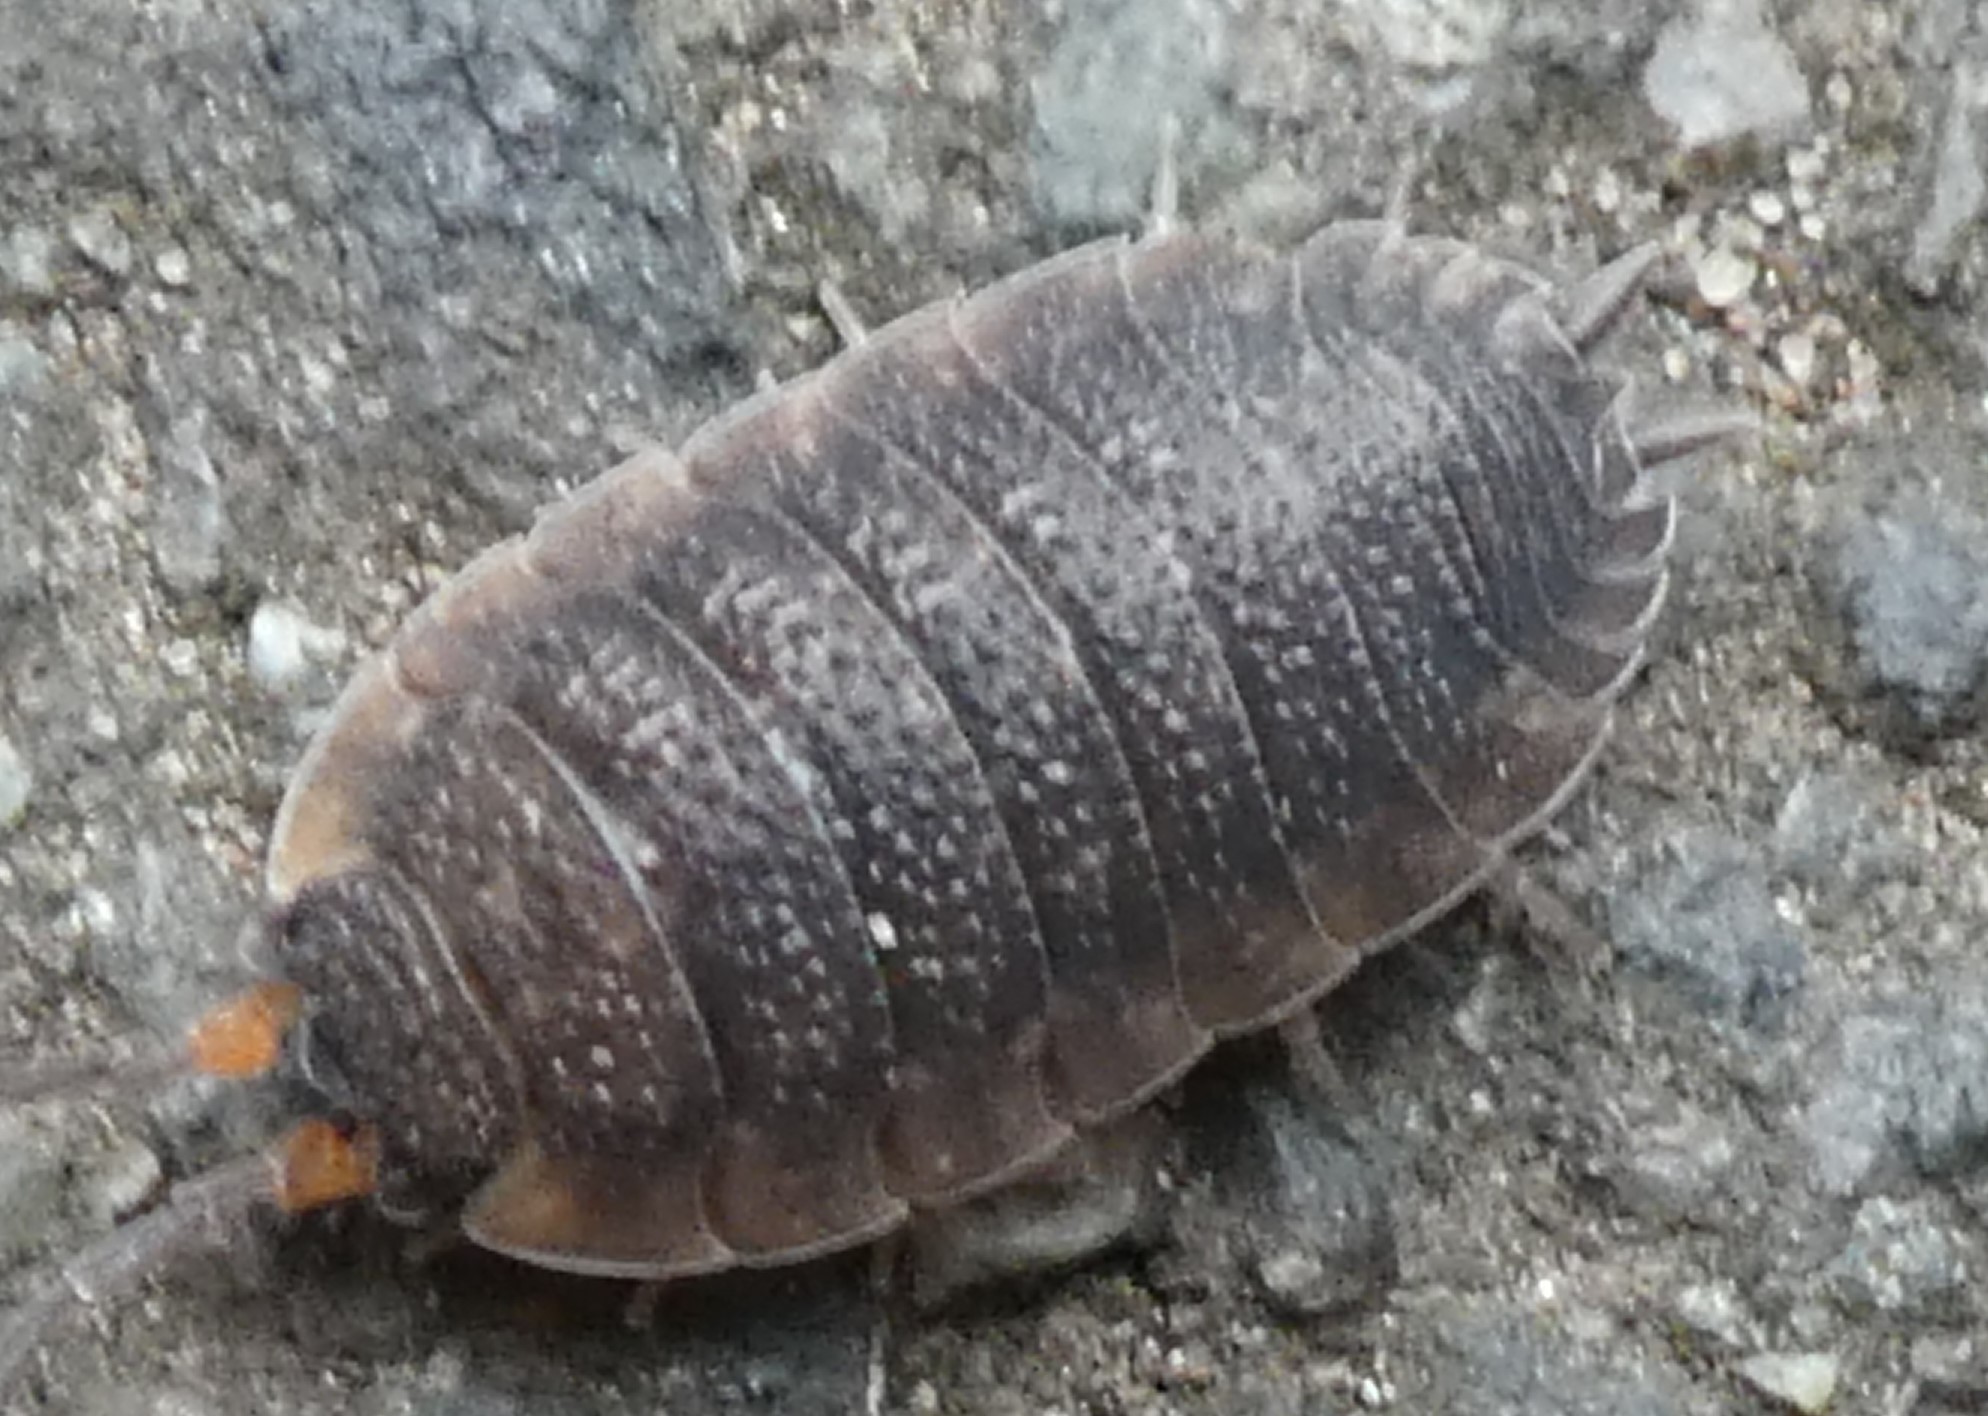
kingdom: Animalia
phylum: Arthropoda
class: Malacostraca
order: Isopoda
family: Porcellionidae
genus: Porcellio
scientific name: Porcellio scaber
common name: Common rough woodlouse
